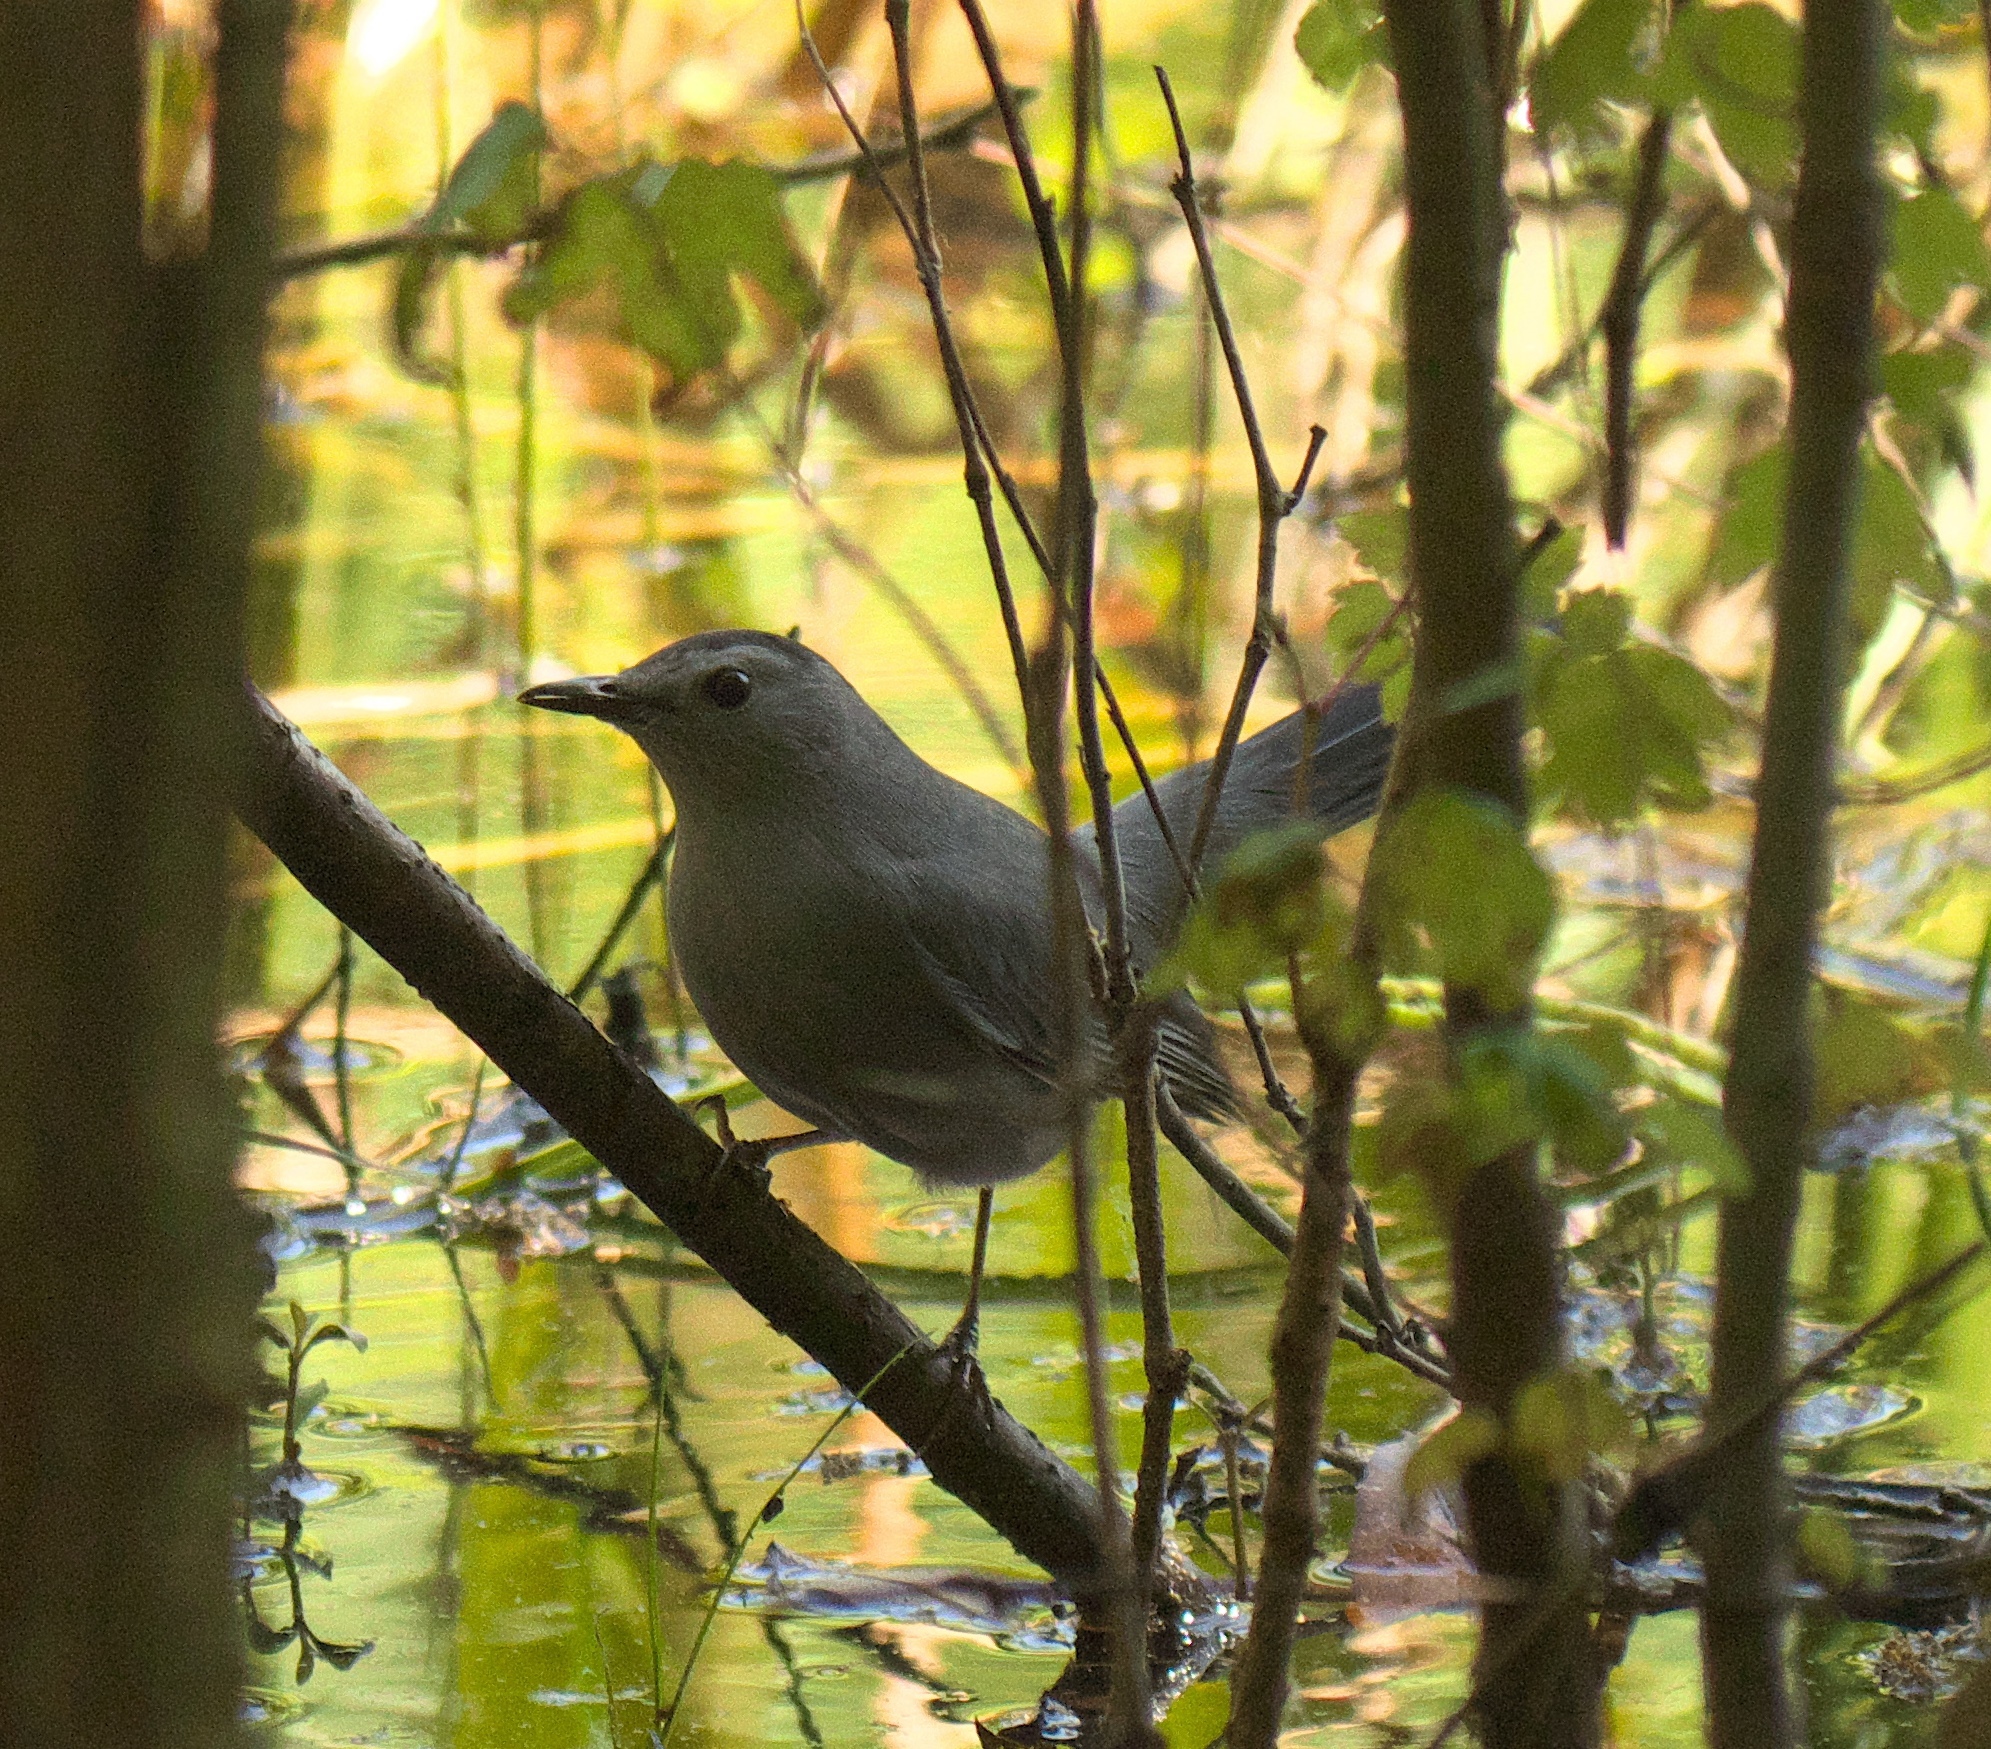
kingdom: Animalia
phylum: Chordata
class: Aves
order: Passeriformes
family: Mimidae
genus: Dumetella
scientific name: Dumetella carolinensis
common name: Gray catbird
